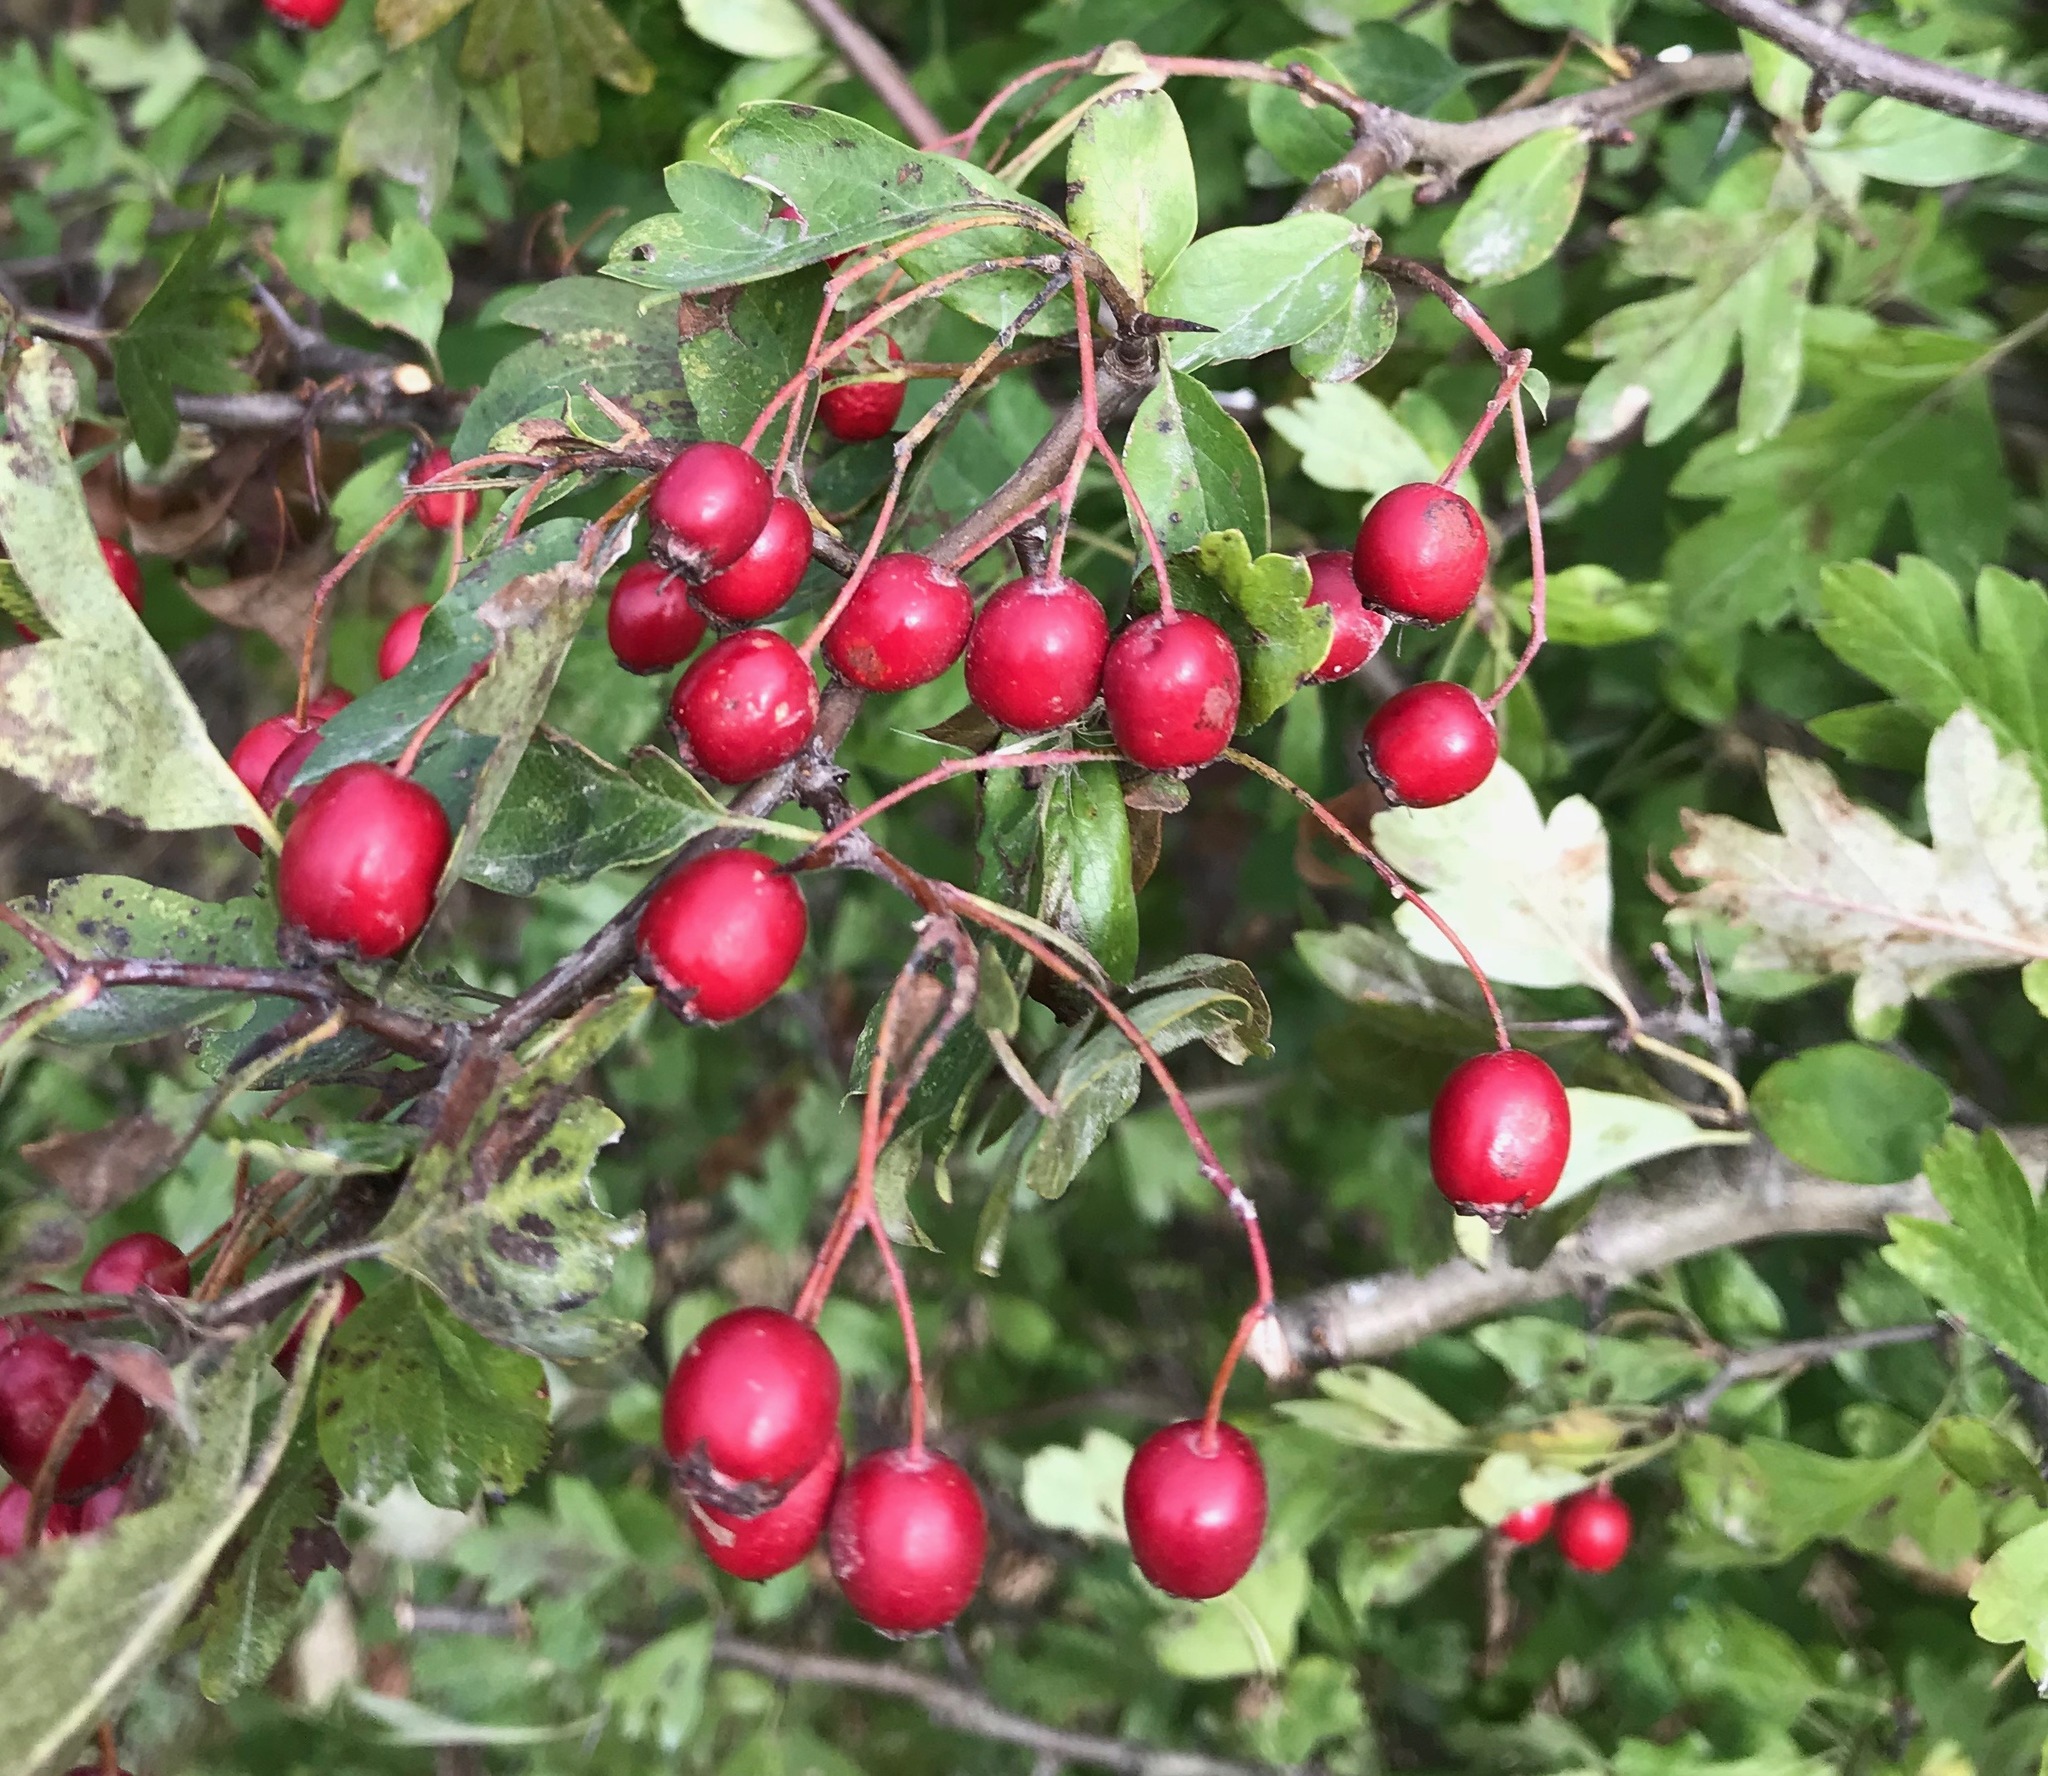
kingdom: Plantae
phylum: Tracheophyta
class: Magnoliopsida
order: Rosales
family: Rosaceae
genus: Crataegus
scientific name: Crataegus monogyna
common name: Hawthorn
